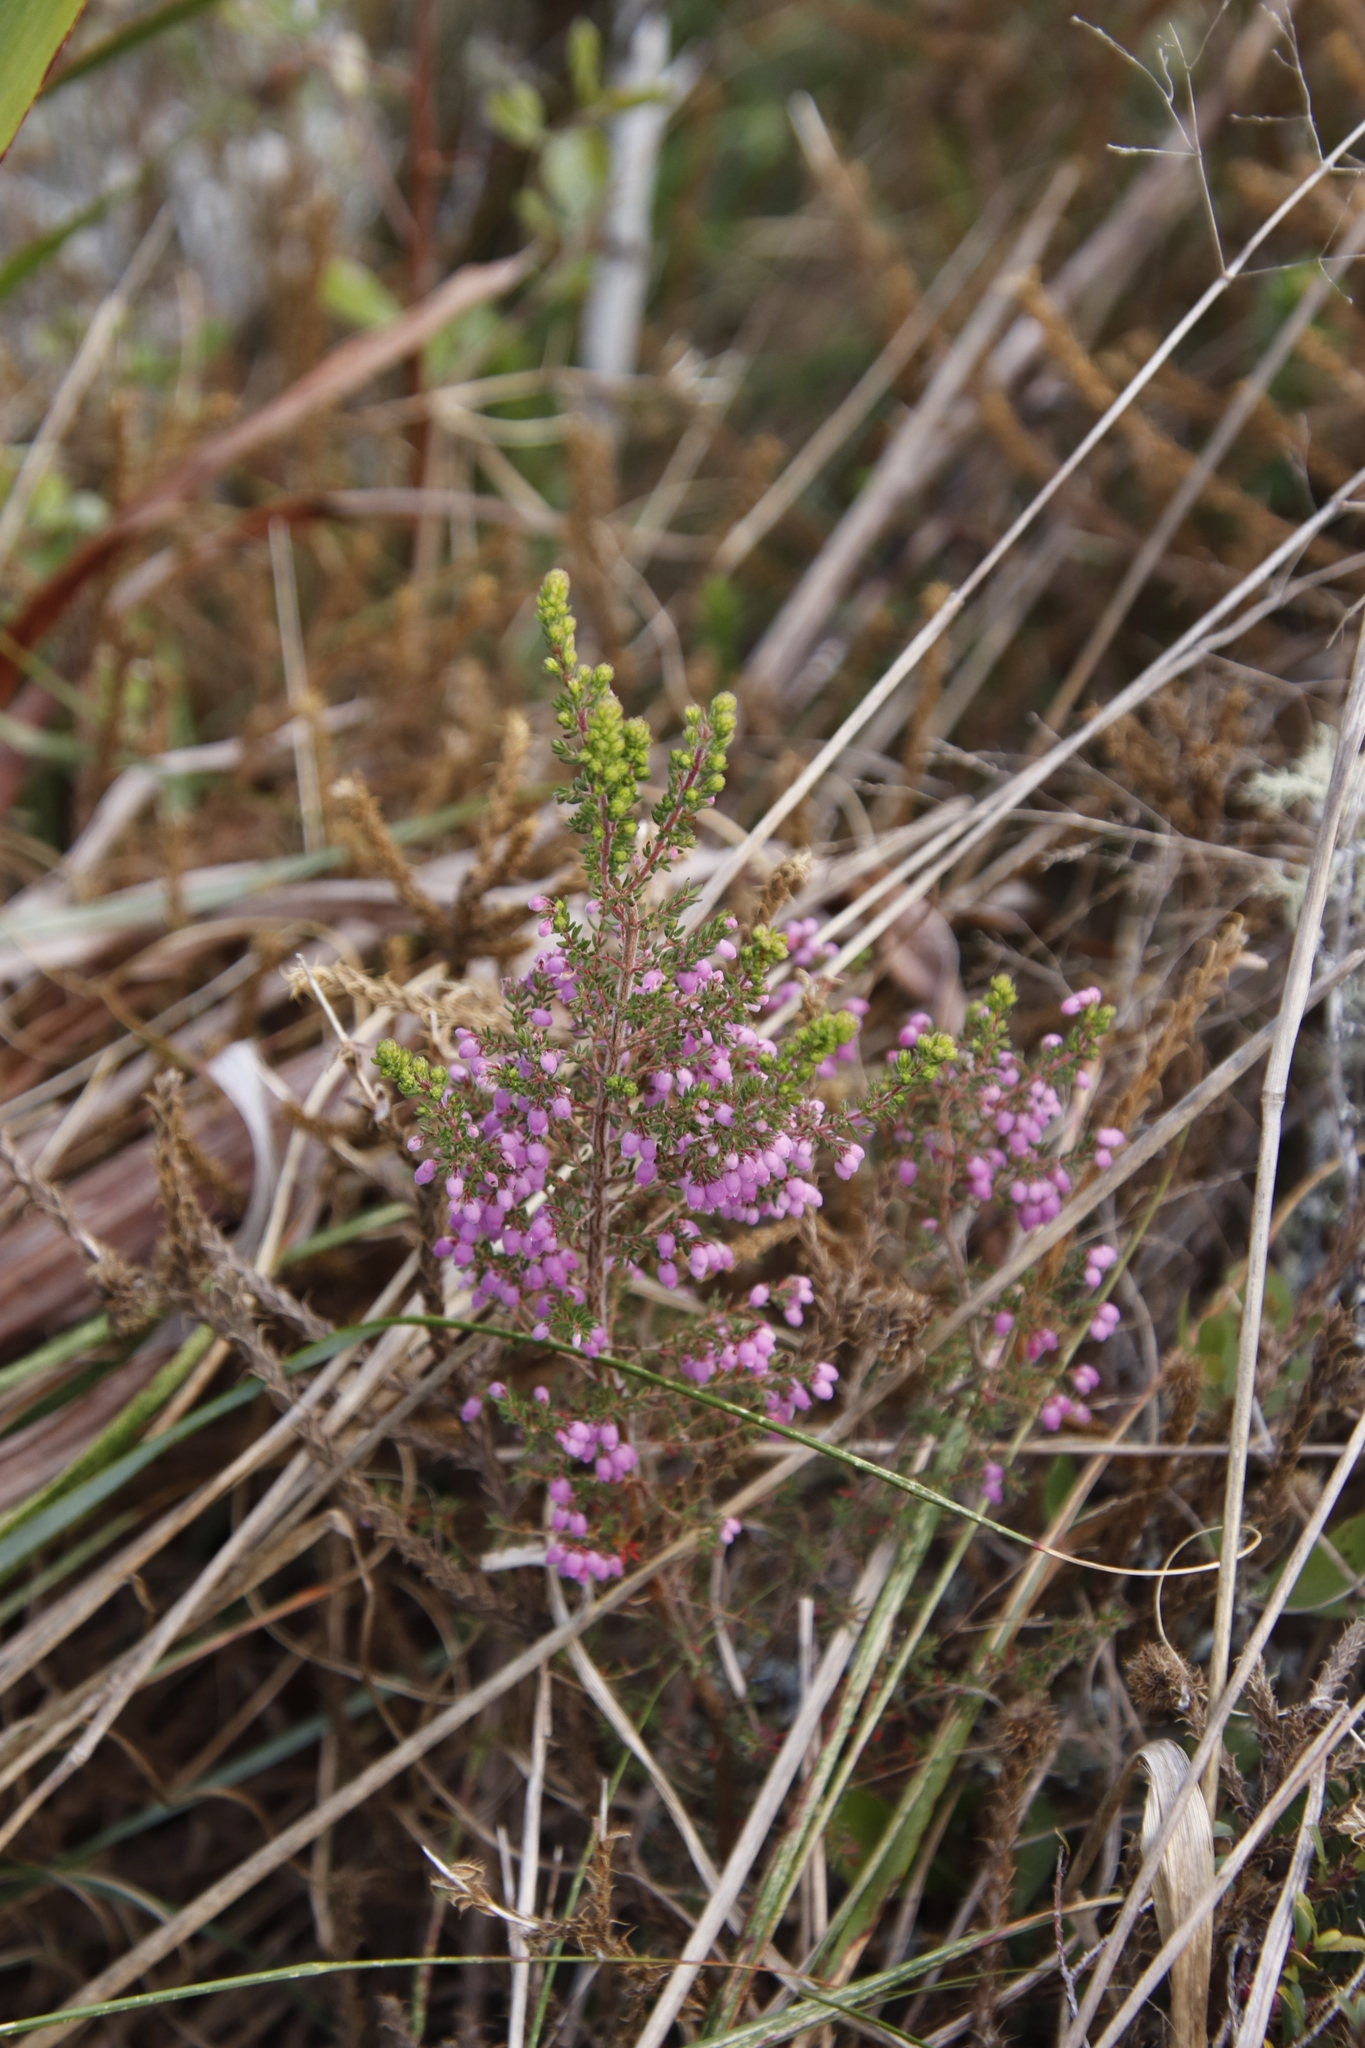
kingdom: Plantae
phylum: Tracheophyta
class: Magnoliopsida
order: Ericales
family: Ericaceae
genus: Erica
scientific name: Erica hirtiflora
